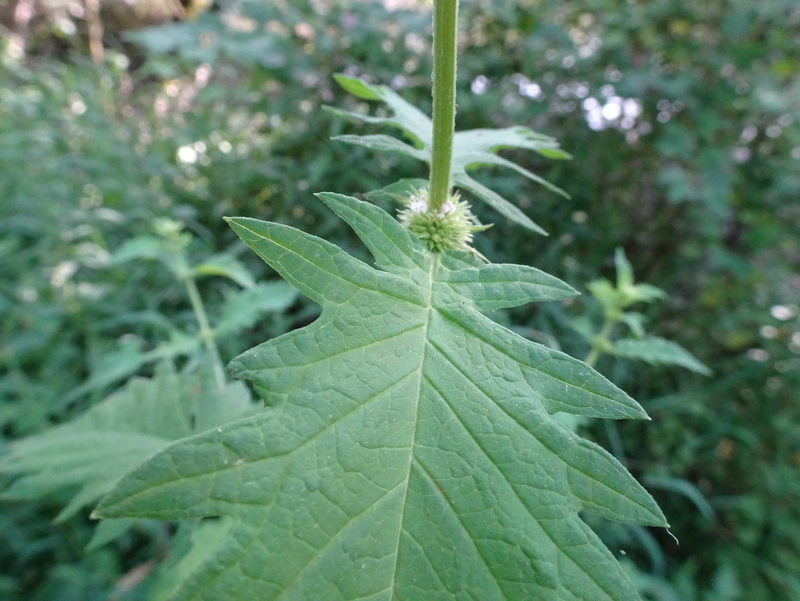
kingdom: Plantae
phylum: Tracheophyta
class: Magnoliopsida
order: Lamiales
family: Lamiaceae
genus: Lycopus
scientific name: Lycopus europaeus
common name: European bugleweed
